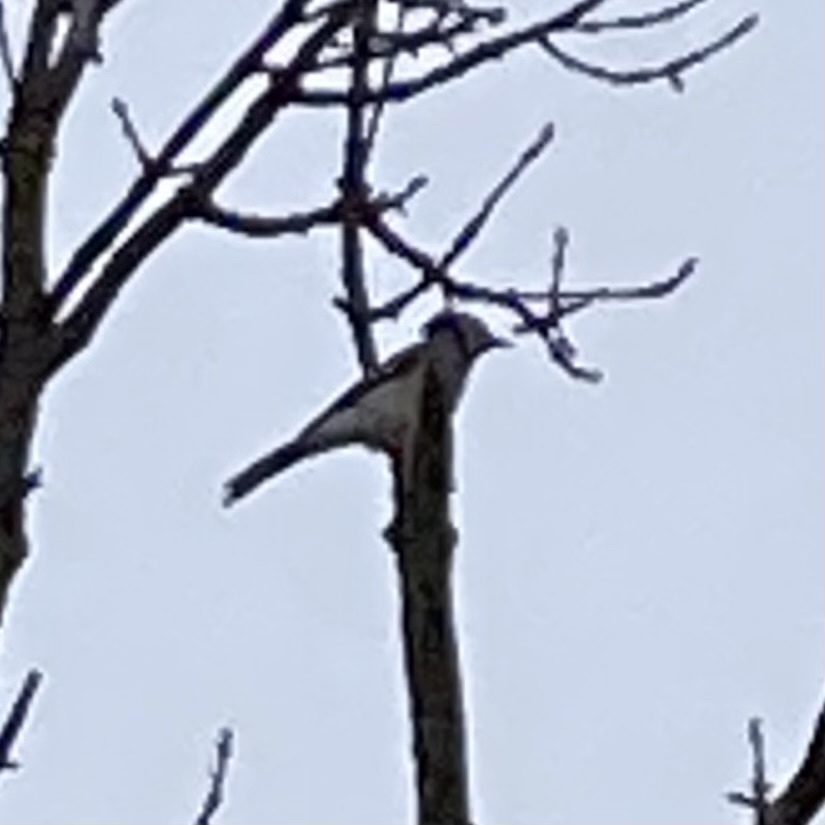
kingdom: Animalia
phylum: Chordata
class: Aves
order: Passeriformes
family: Corvidae
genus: Cyanocitta
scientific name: Cyanocitta cristata
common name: Blue jay
